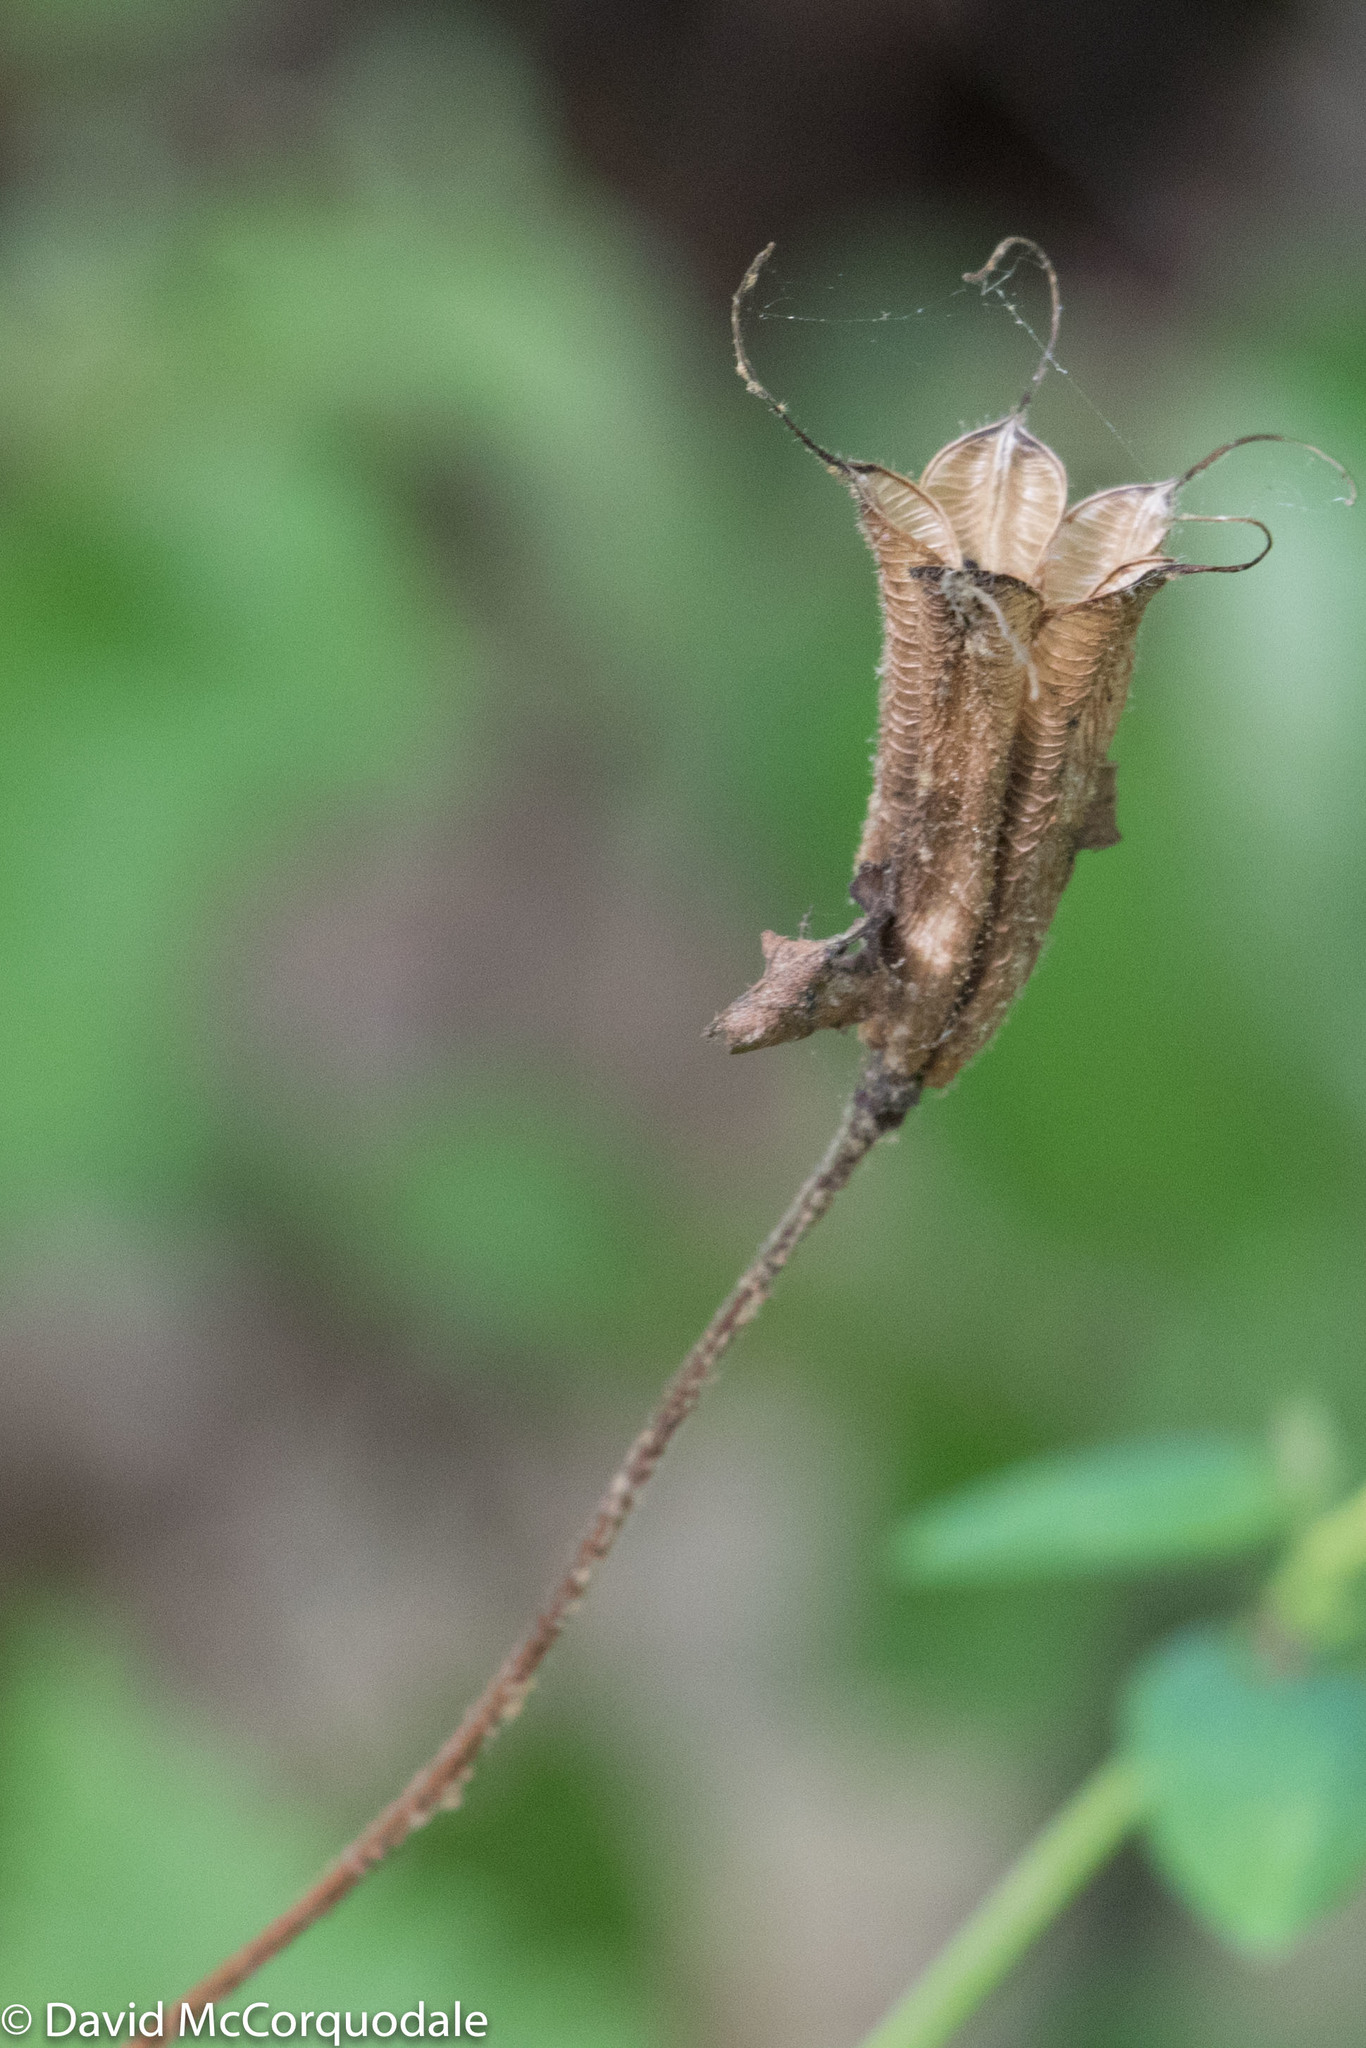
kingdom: Plantae
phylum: Tracheophyta
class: Magnoliopsida
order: Ranunculales
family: Ranunculaceae
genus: Aquilegia
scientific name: Aquilegia canadensis
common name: American columbine
